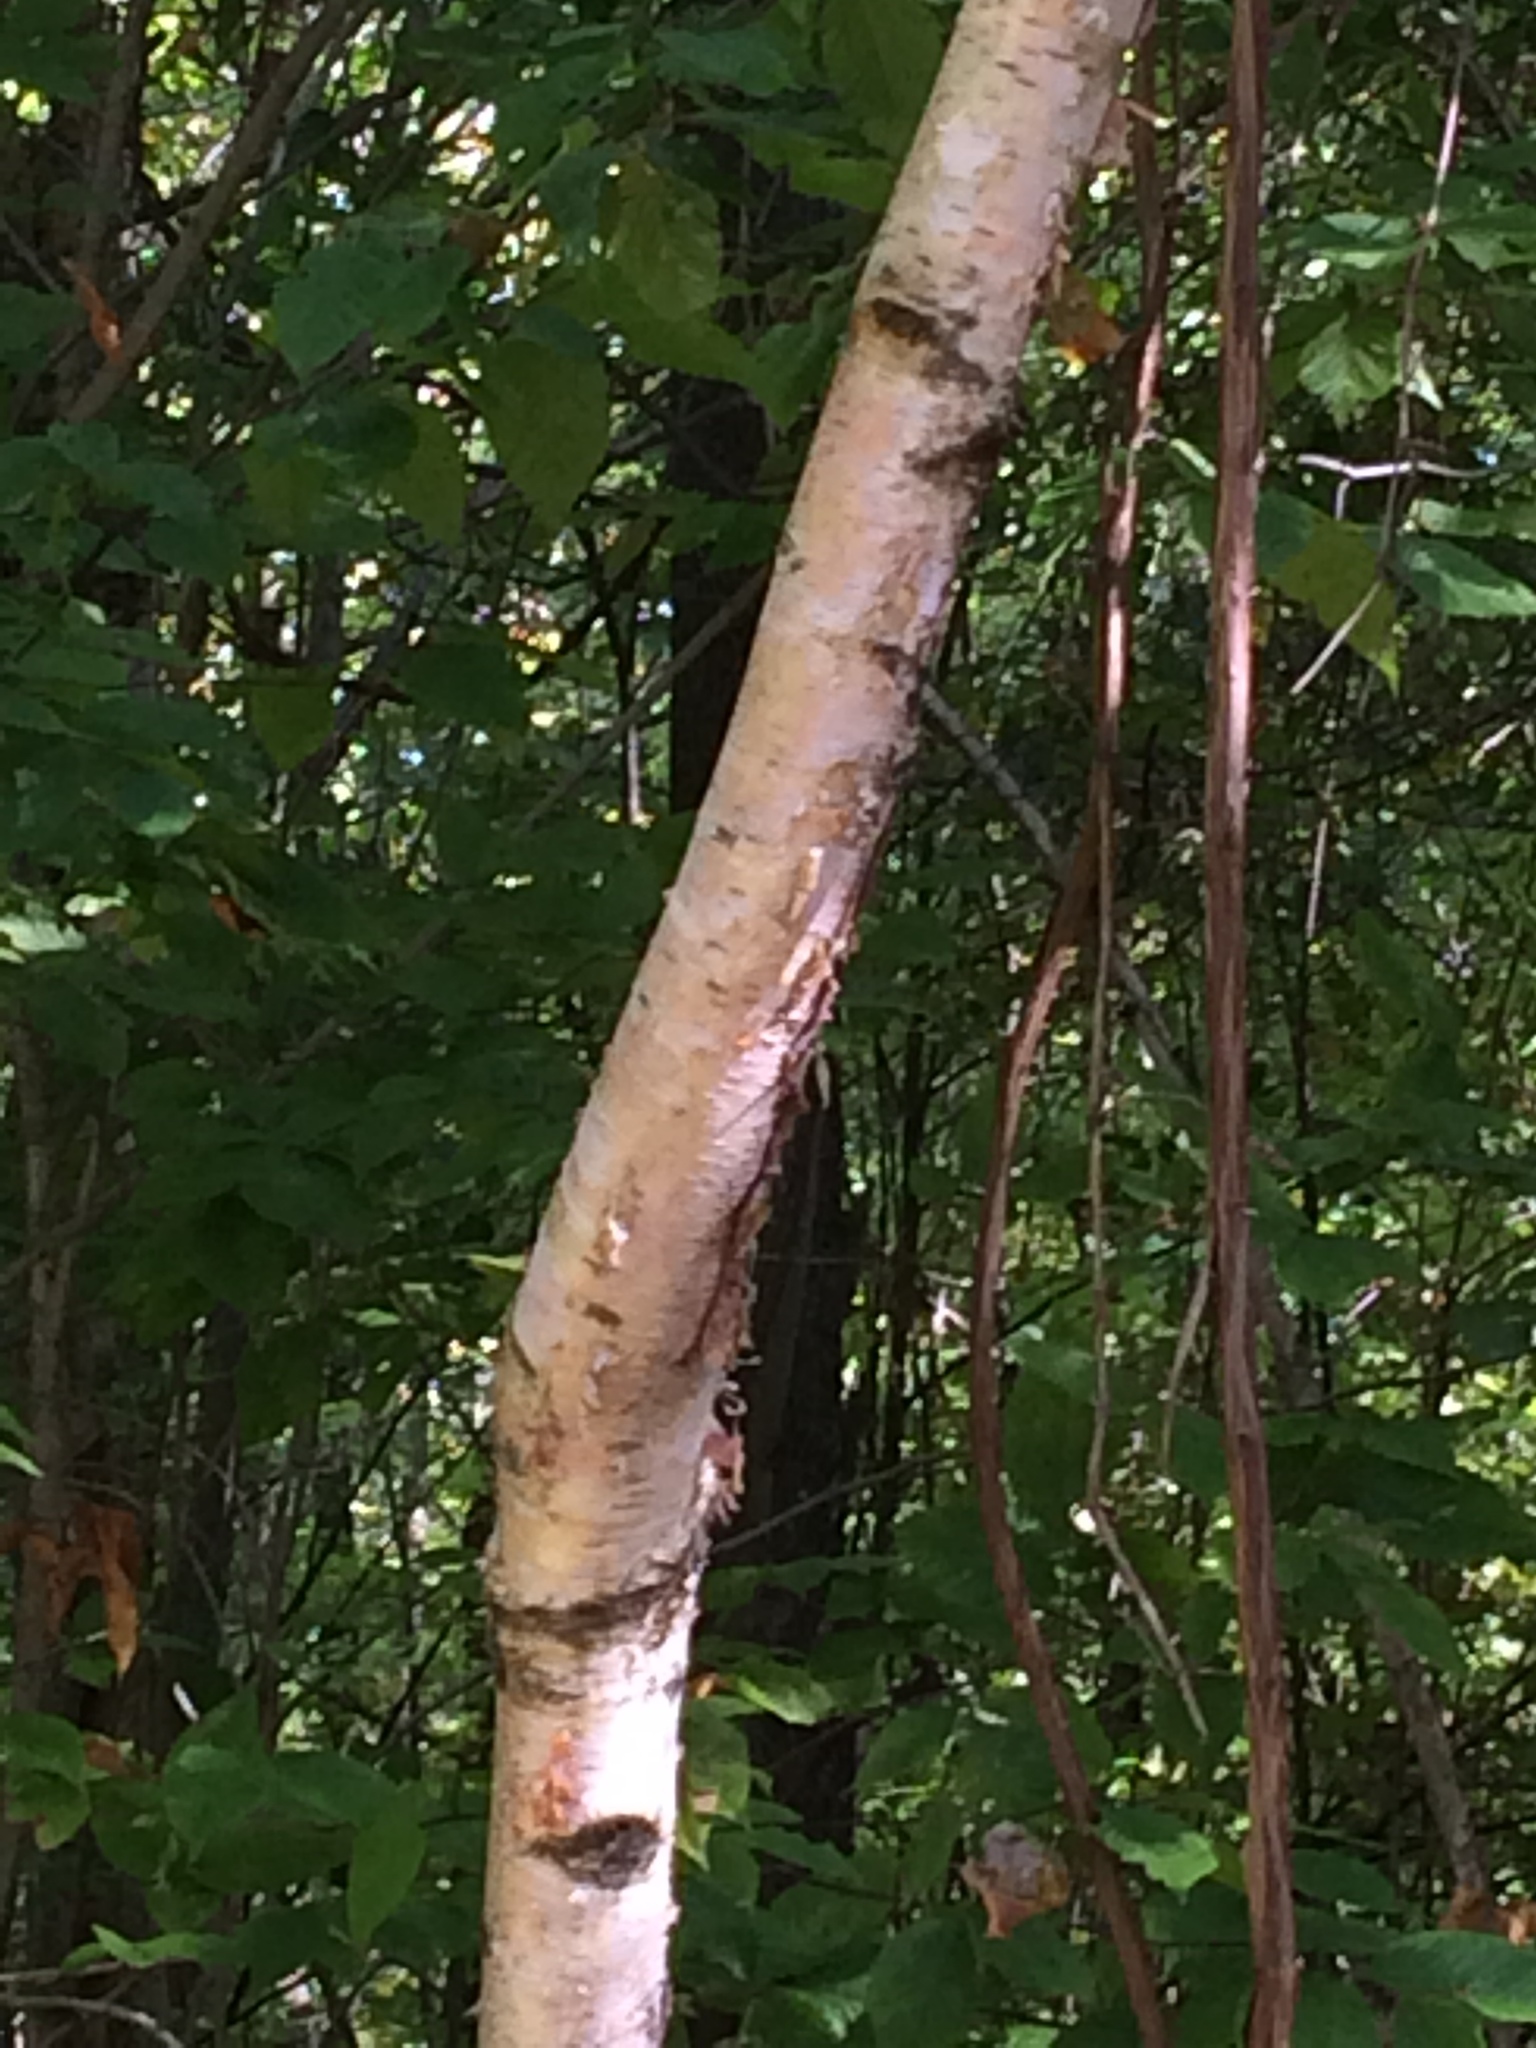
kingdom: Plantae
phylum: Tracheophyta
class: Magnoliopsida
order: Fagales
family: Betulaceae
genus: Betula
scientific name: Betula papyrifera
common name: Paper birch
